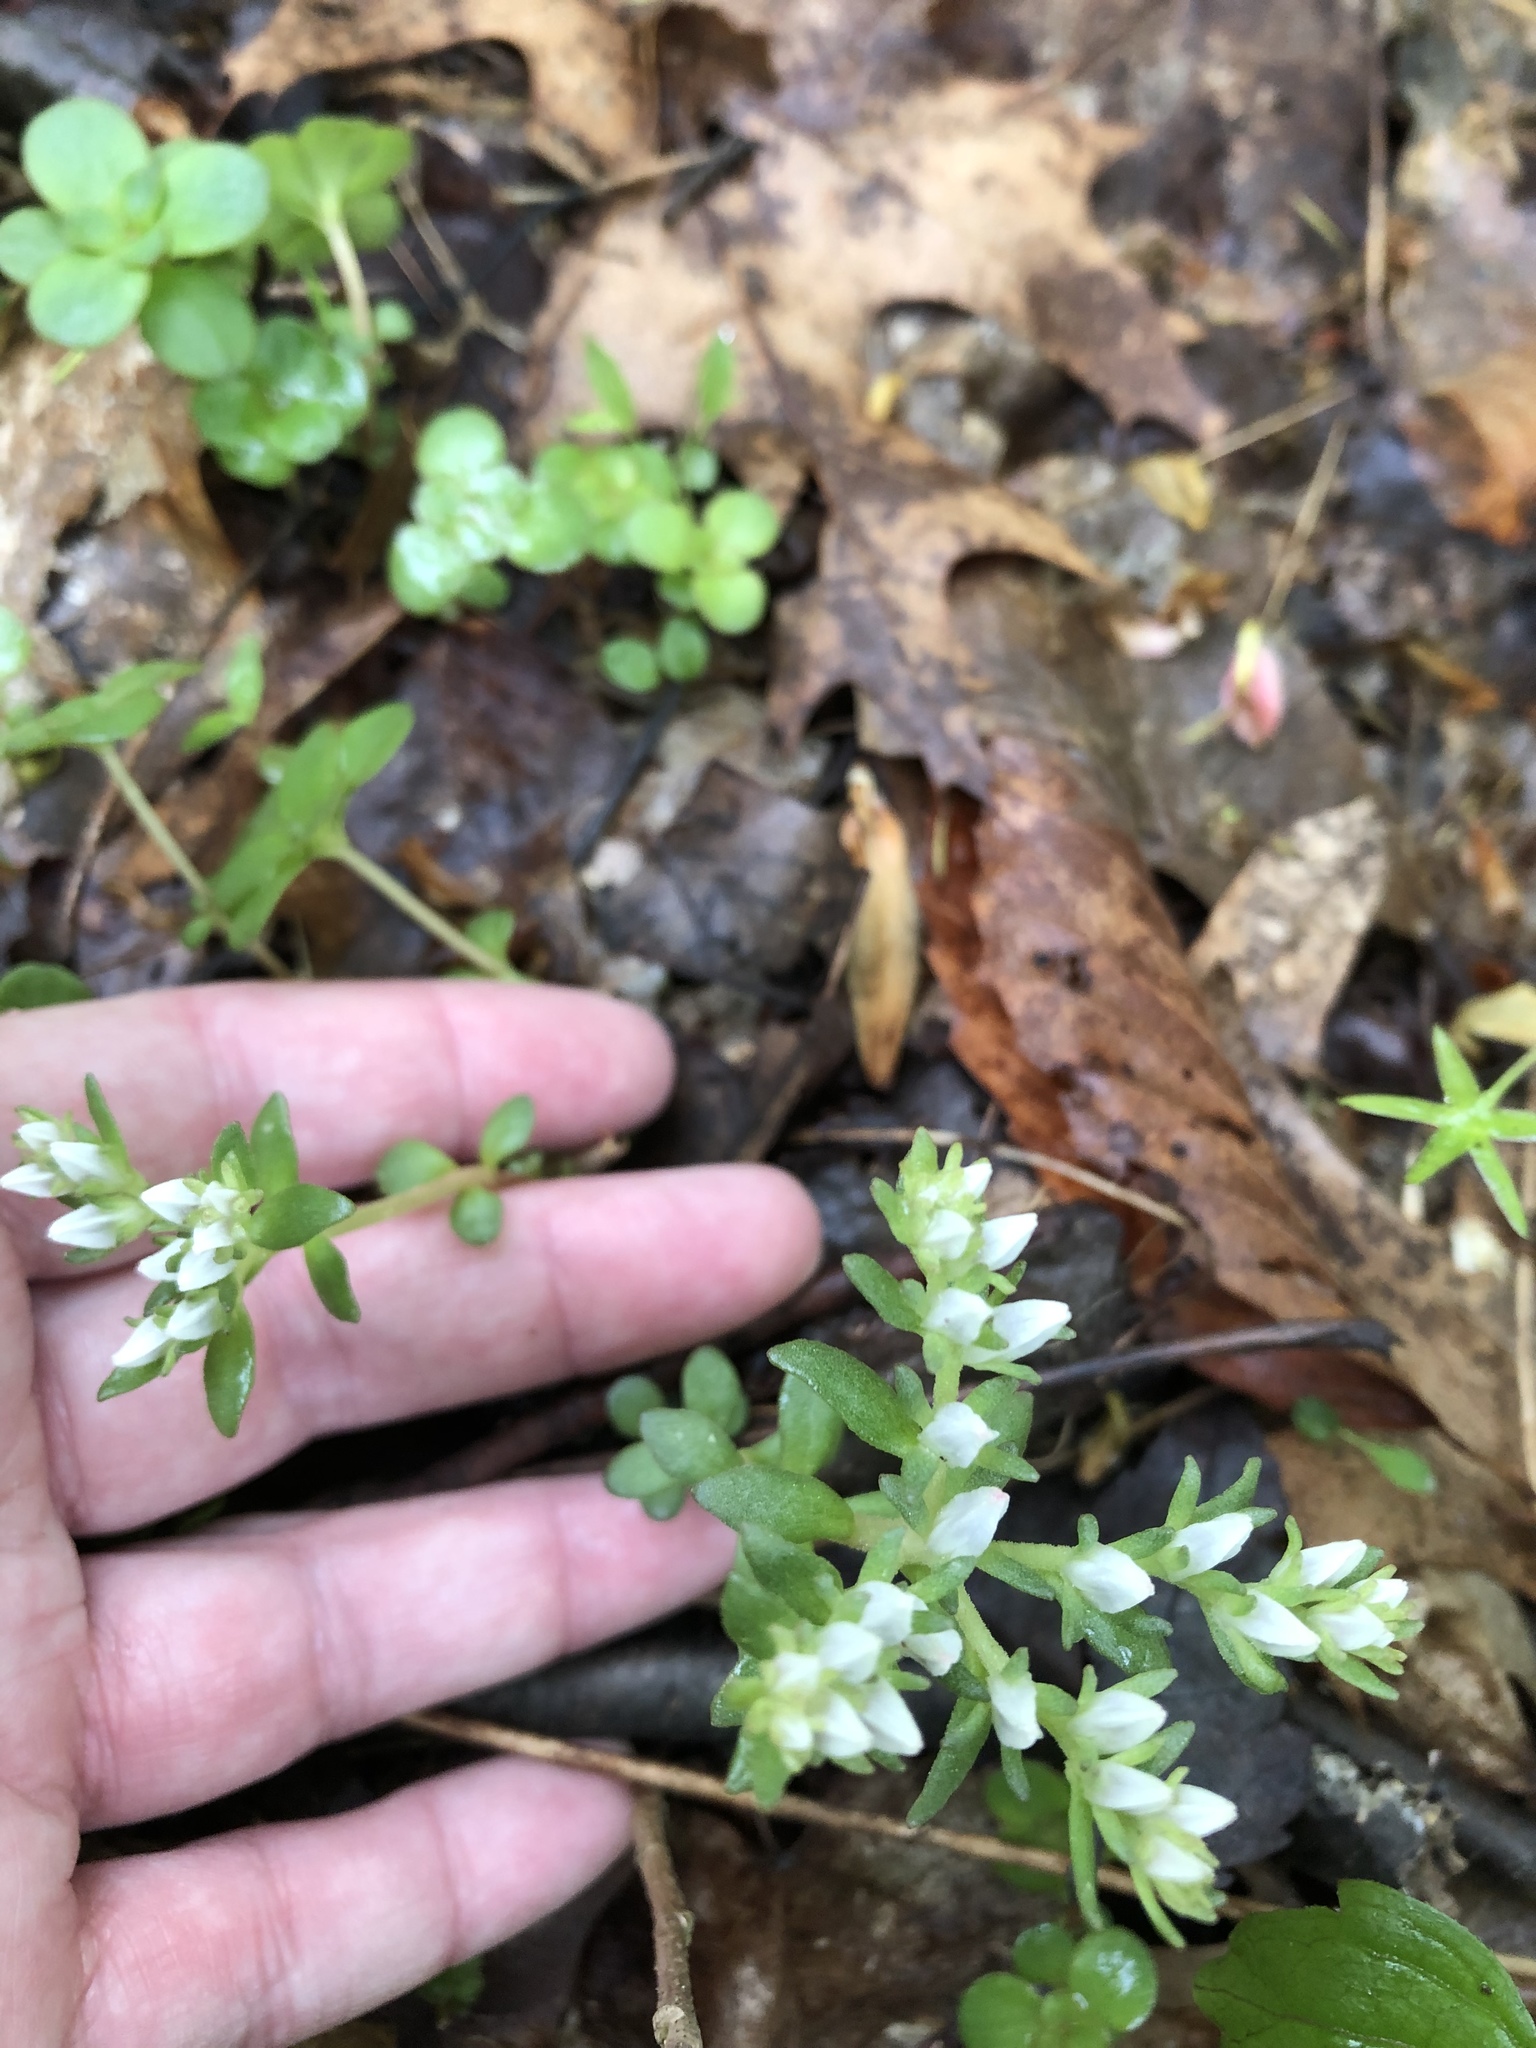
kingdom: Plantae
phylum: Tracheophyta
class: Magnoliopsida
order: Saxifragales
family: Crassulaceae
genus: Sedum
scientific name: Sedum ternatum
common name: Wild stonecrop
